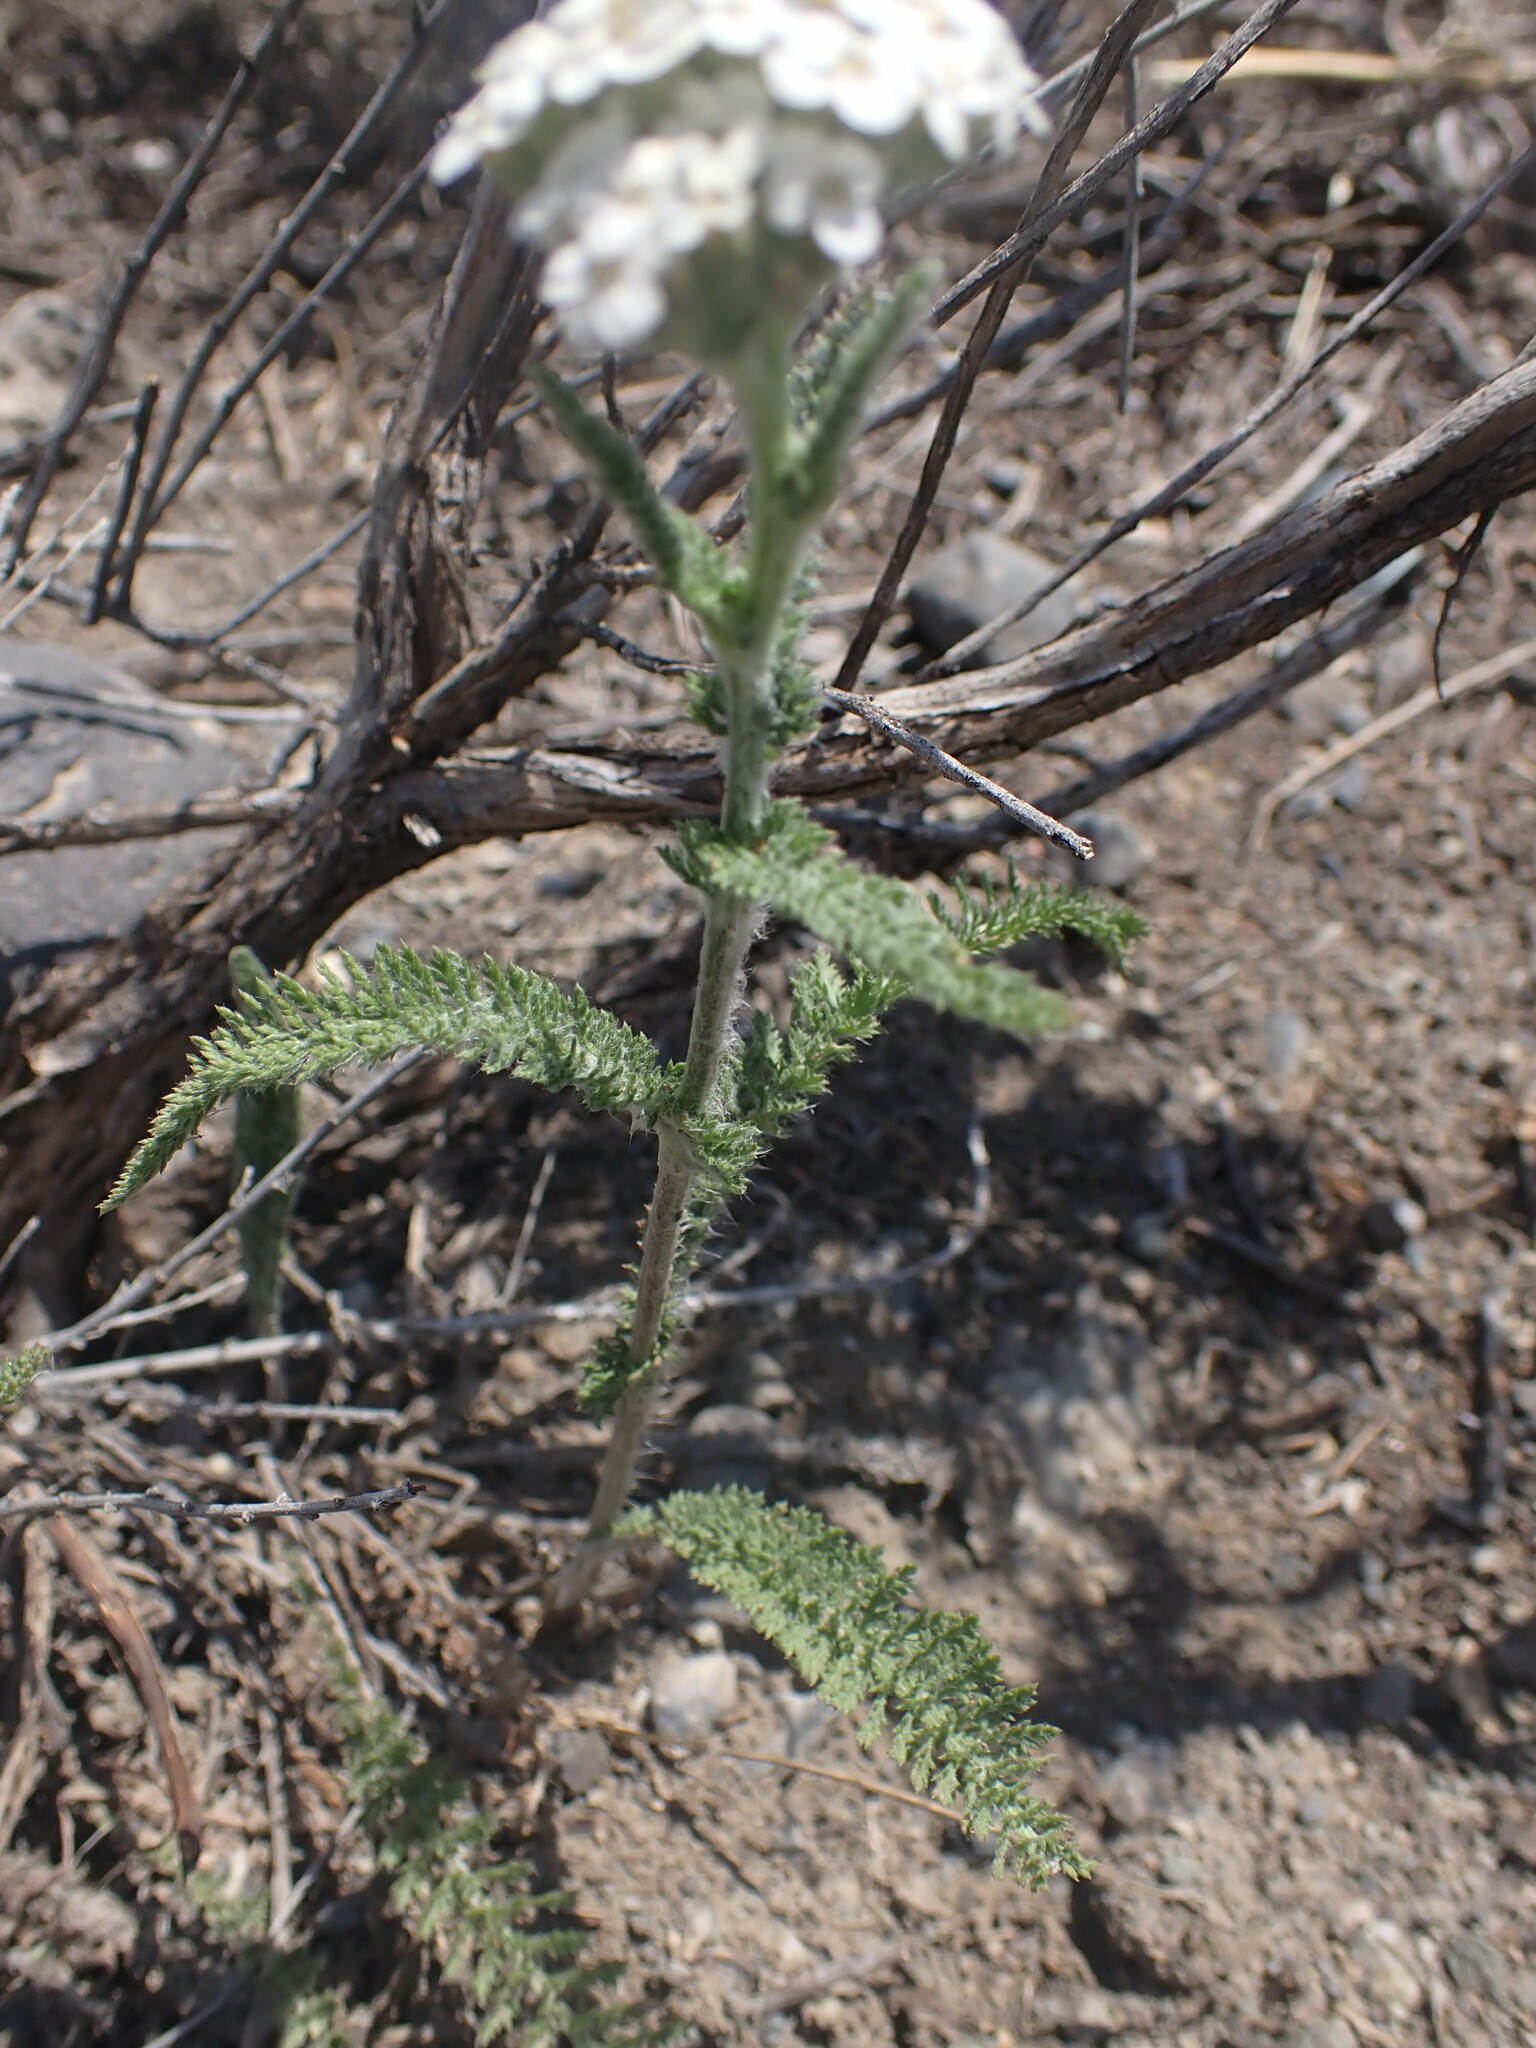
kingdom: Plantae
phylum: Tracheophyta
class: Magnoliopsida
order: Asterales
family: Asteraceae
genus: Achillea
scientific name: Achillea millefolium
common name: Yarrow
